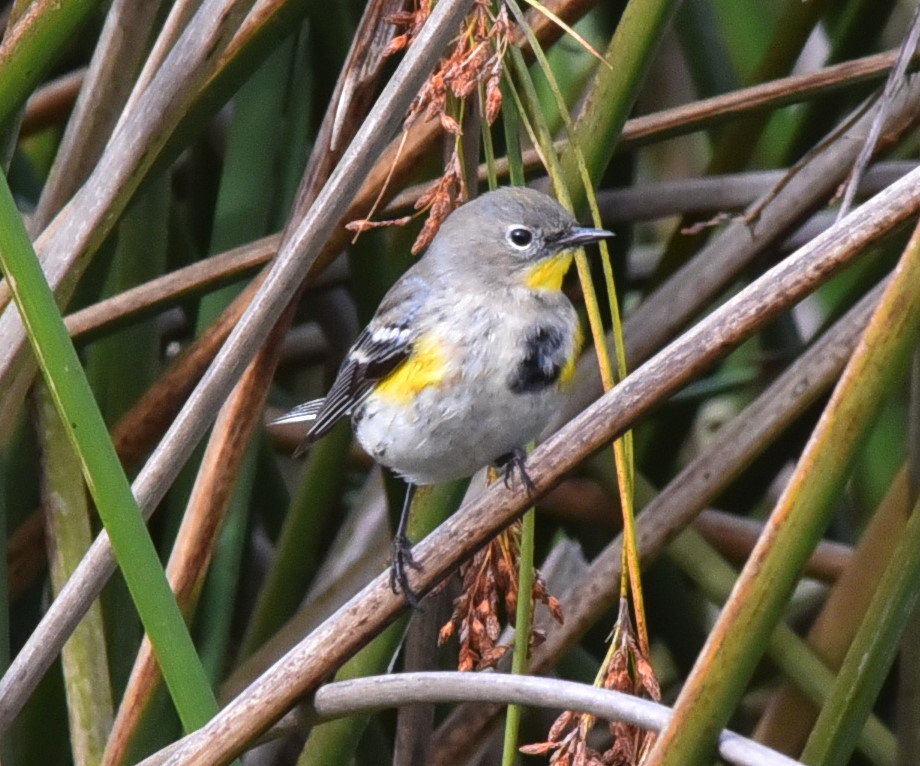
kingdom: Animalia
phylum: Chordata
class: Aves
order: Passeriformes
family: Parulidae
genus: Setophaga
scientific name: Setophaga coronata
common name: Myrtle warbler
